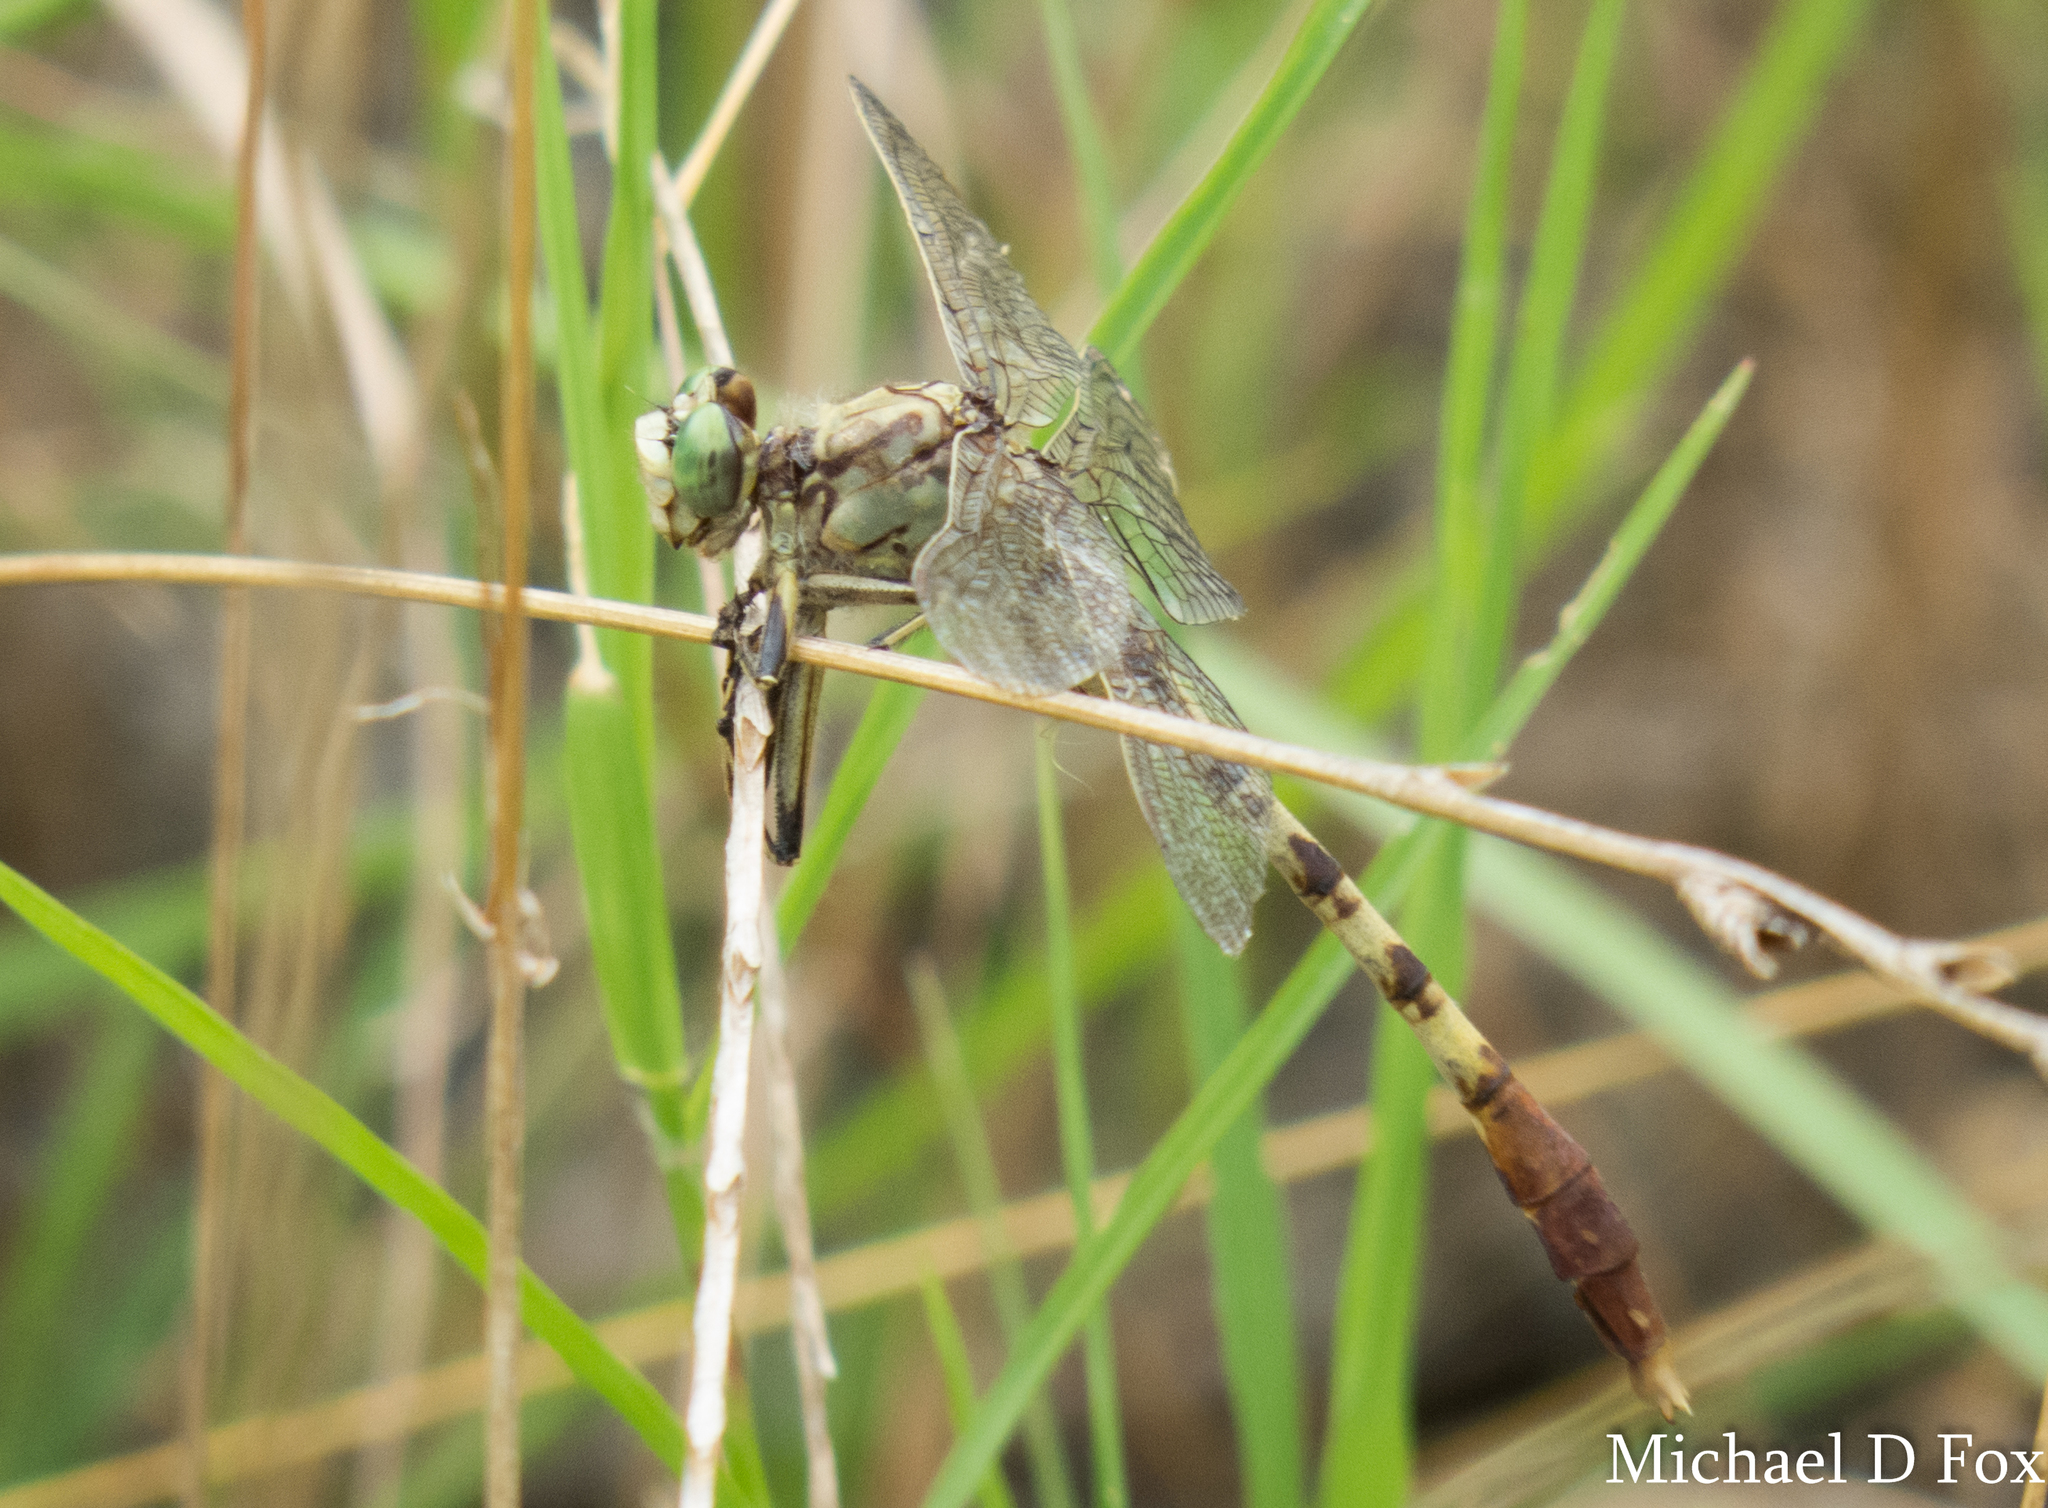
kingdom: Animalia
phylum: Arthropoda
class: Insecta
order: Odonata
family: Gomphidae
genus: Arigomphus
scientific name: Arigomphus submedianus
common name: Jade clubtail
